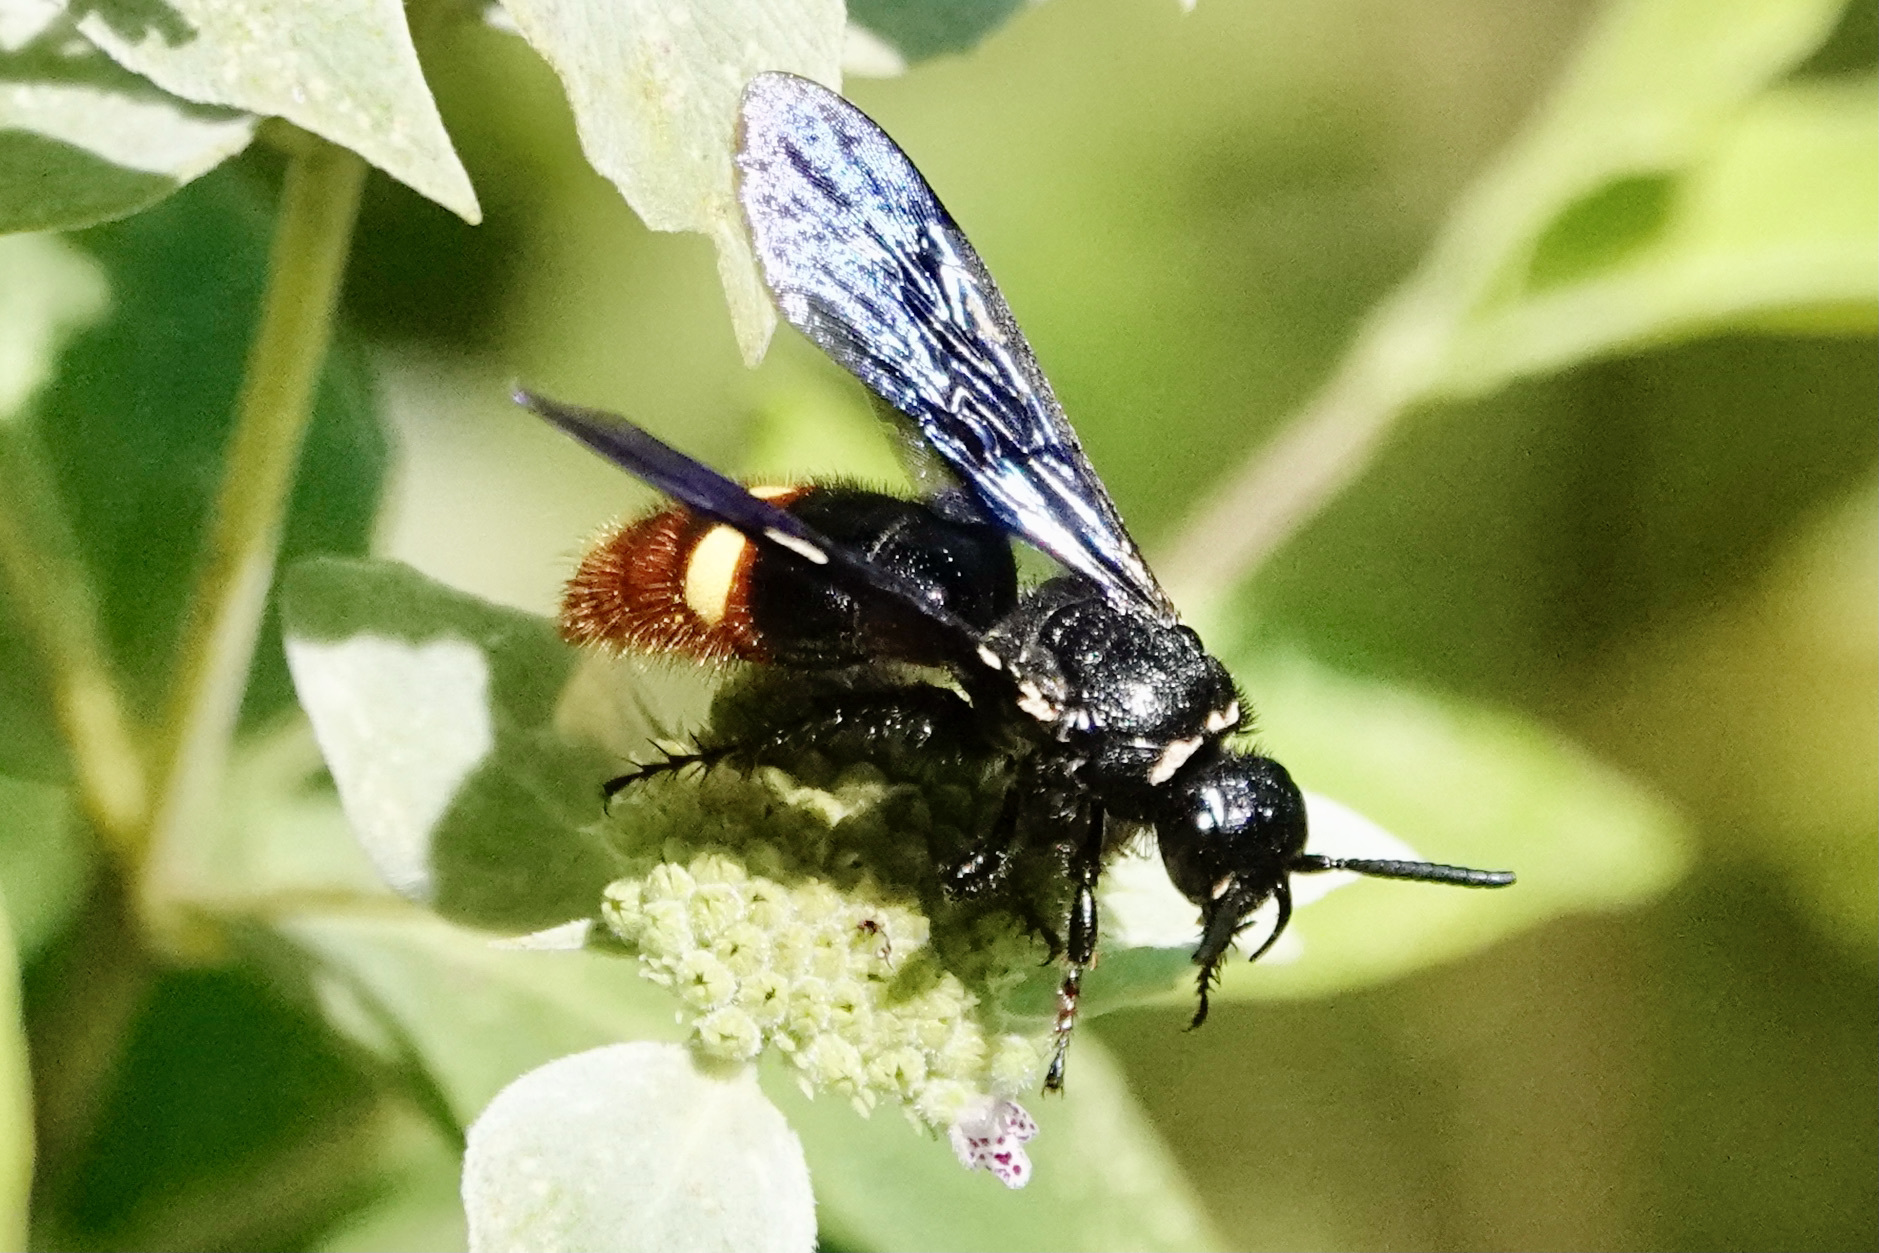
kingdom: Animalia
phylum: Arthropoda
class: Insecta
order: Hymenoptera
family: Scoliidae
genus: Scolia
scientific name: Scolia dubia
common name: Blue-winged scoliid wasp
